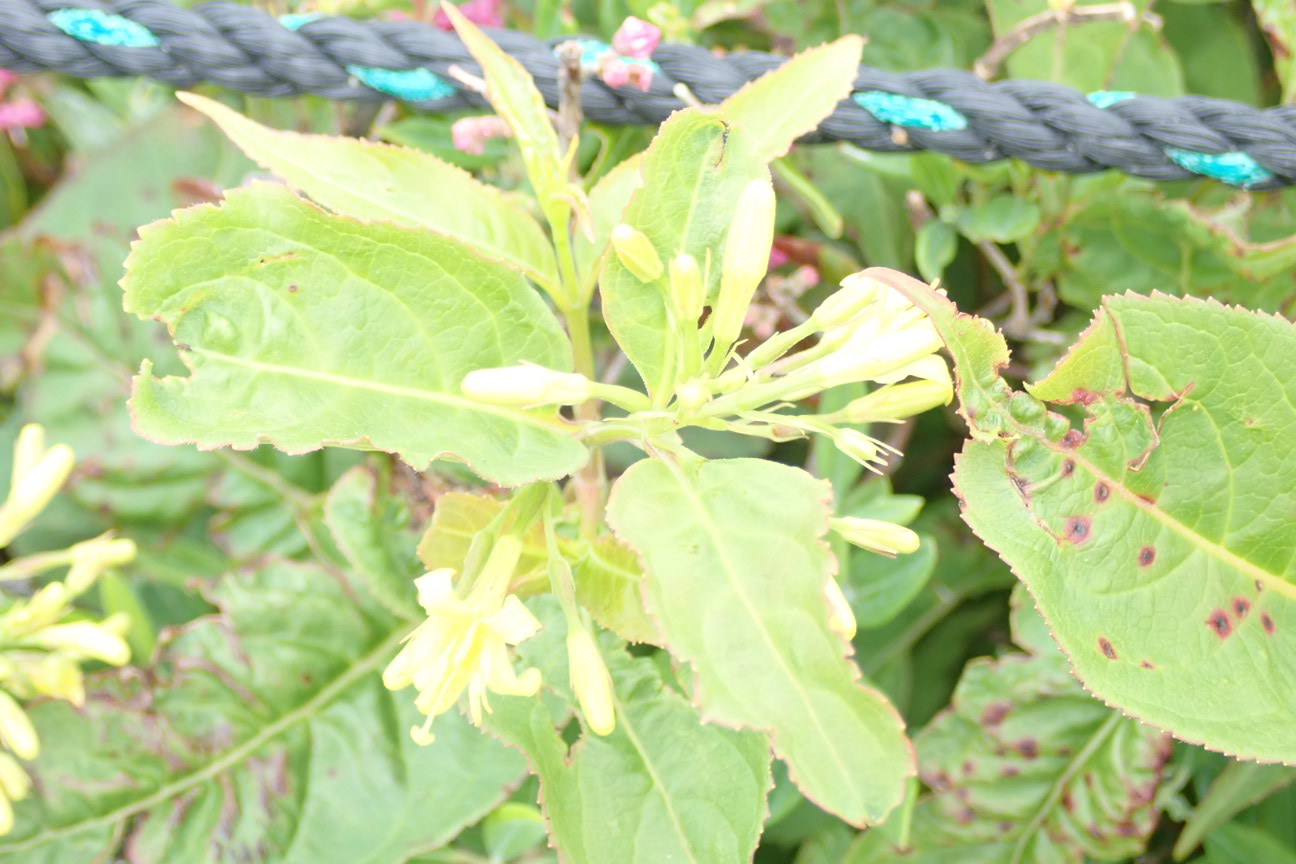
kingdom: Plantae
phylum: Tracheophyta
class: Magnoliopsida
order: Dipsacales
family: Caprifoliaceae
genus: Diervilla
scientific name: Diervilla lonicera
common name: Bush-honeysuckle
